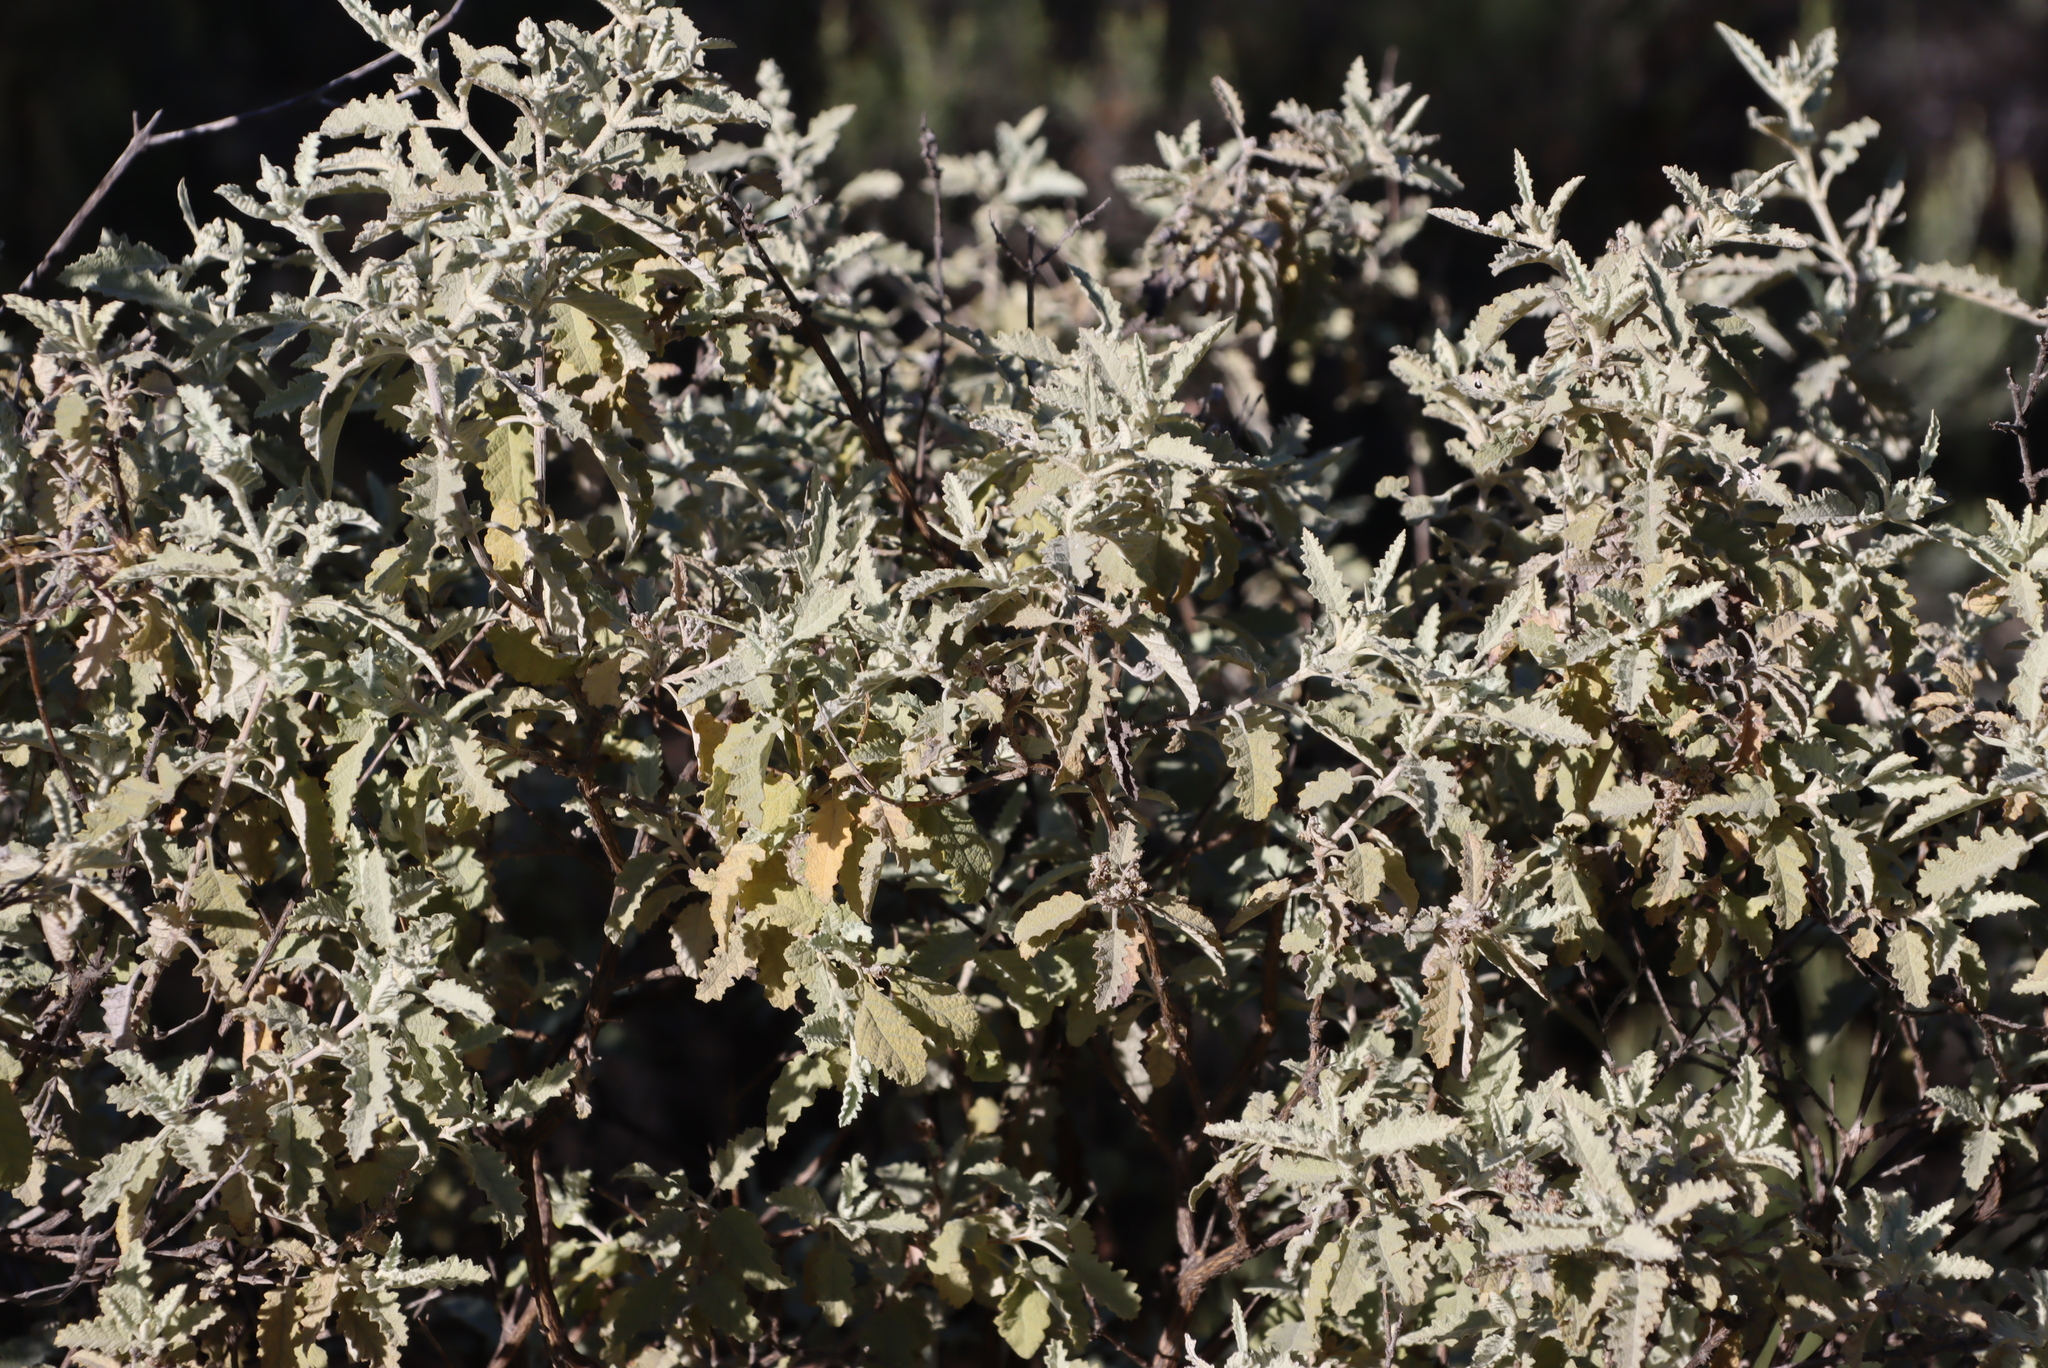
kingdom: Plantae
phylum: Tracheophyta
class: Magnoliopsida
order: Lamiales
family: Scrophulariaceae
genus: Buddleja
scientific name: Buddleja glomerata
